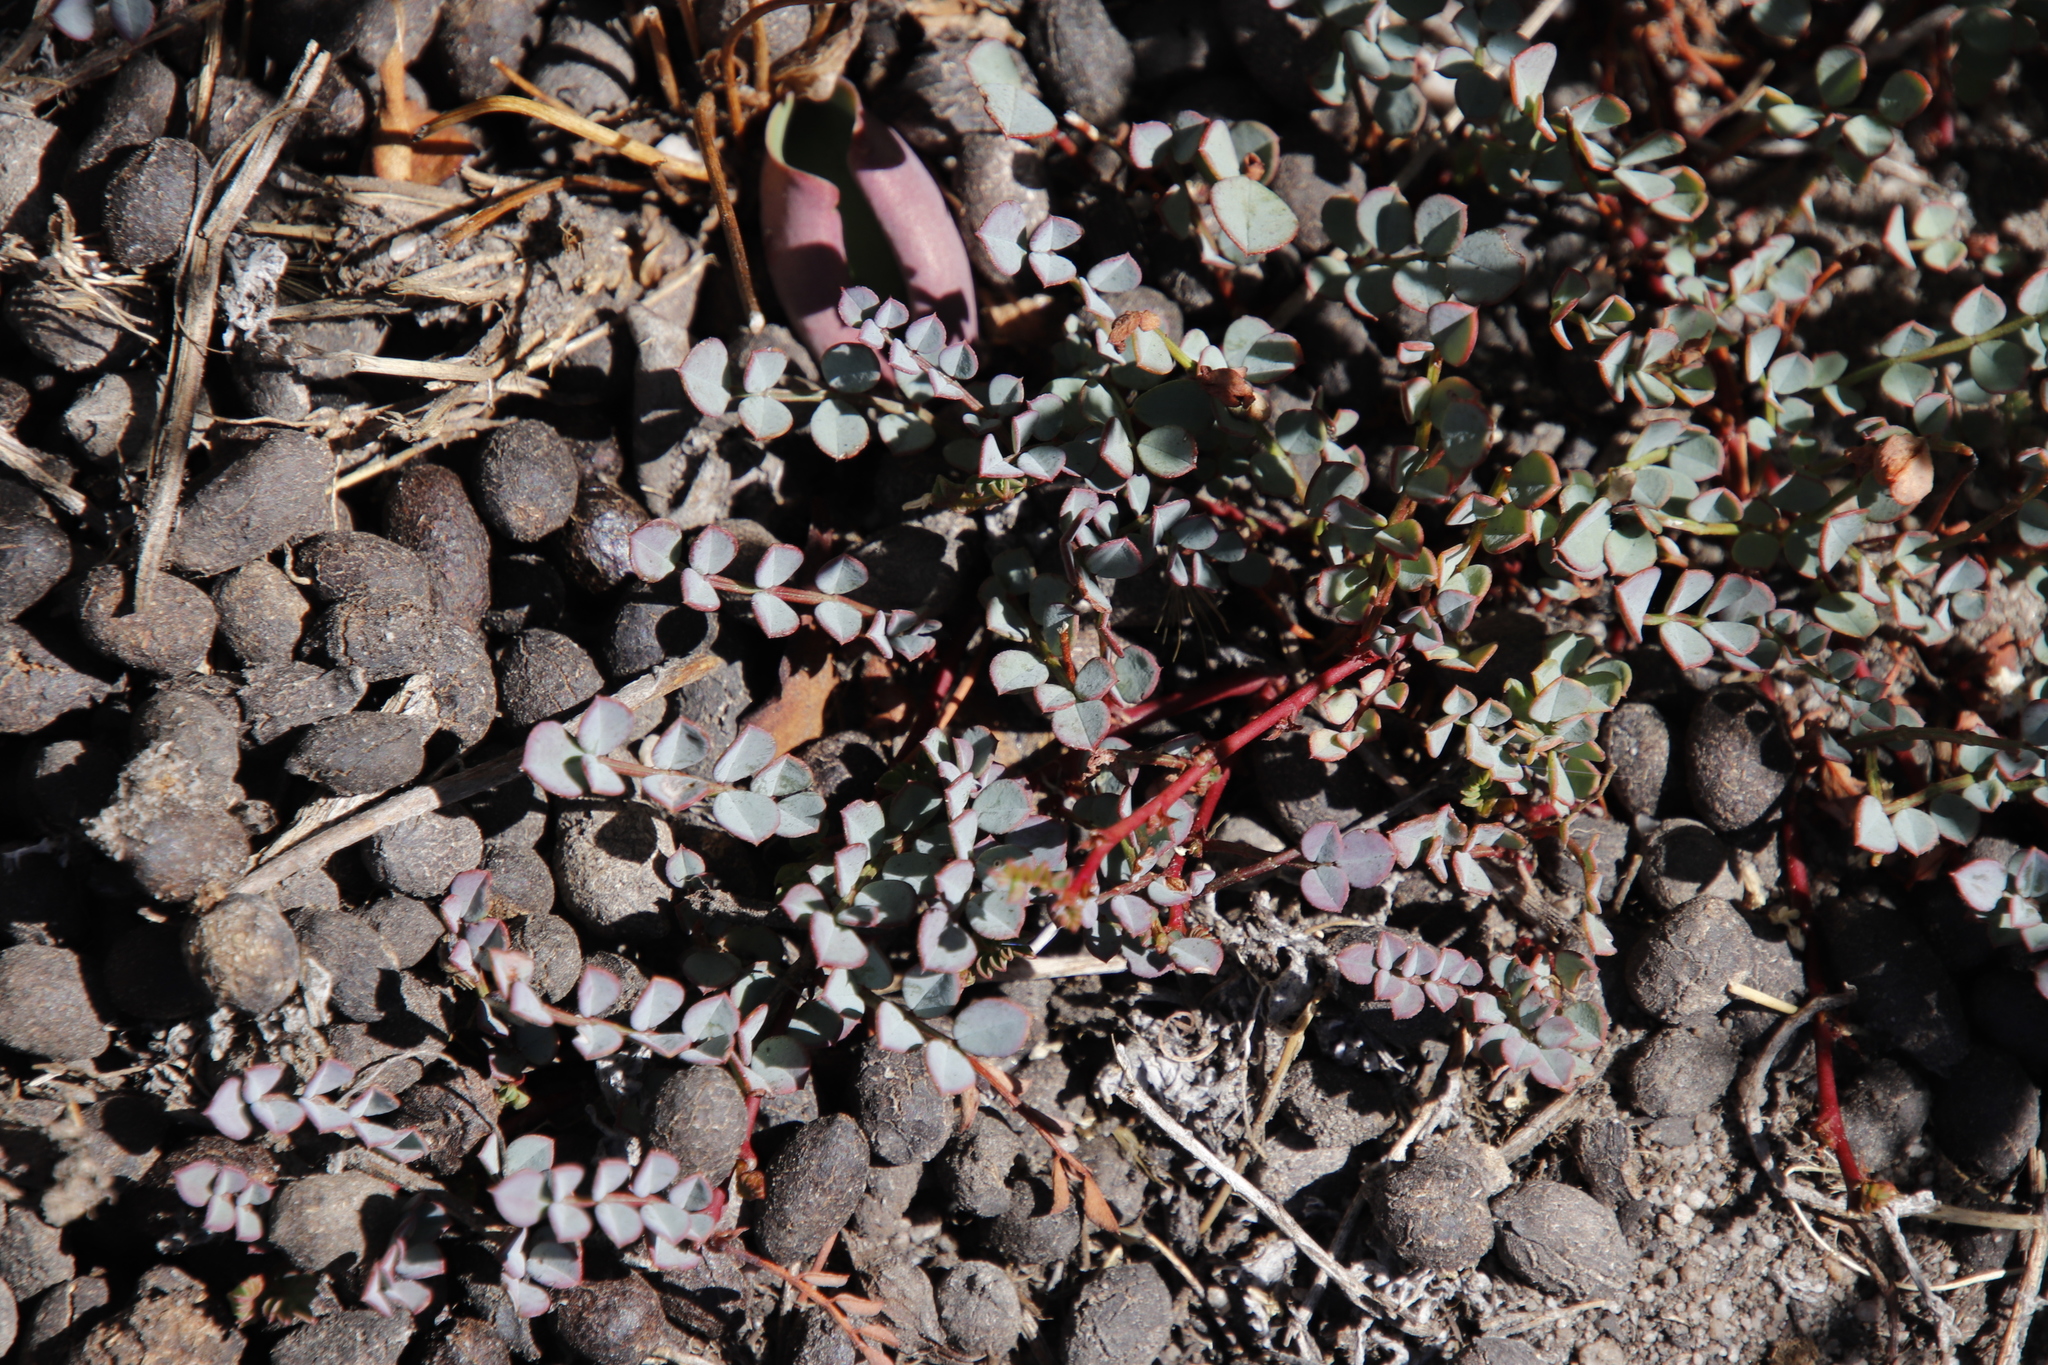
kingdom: Plantae
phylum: Tracheophyta
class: Magnoliopsida
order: Fabales
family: Fabaceae
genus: Indigofera
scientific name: Indigofera humifusa
